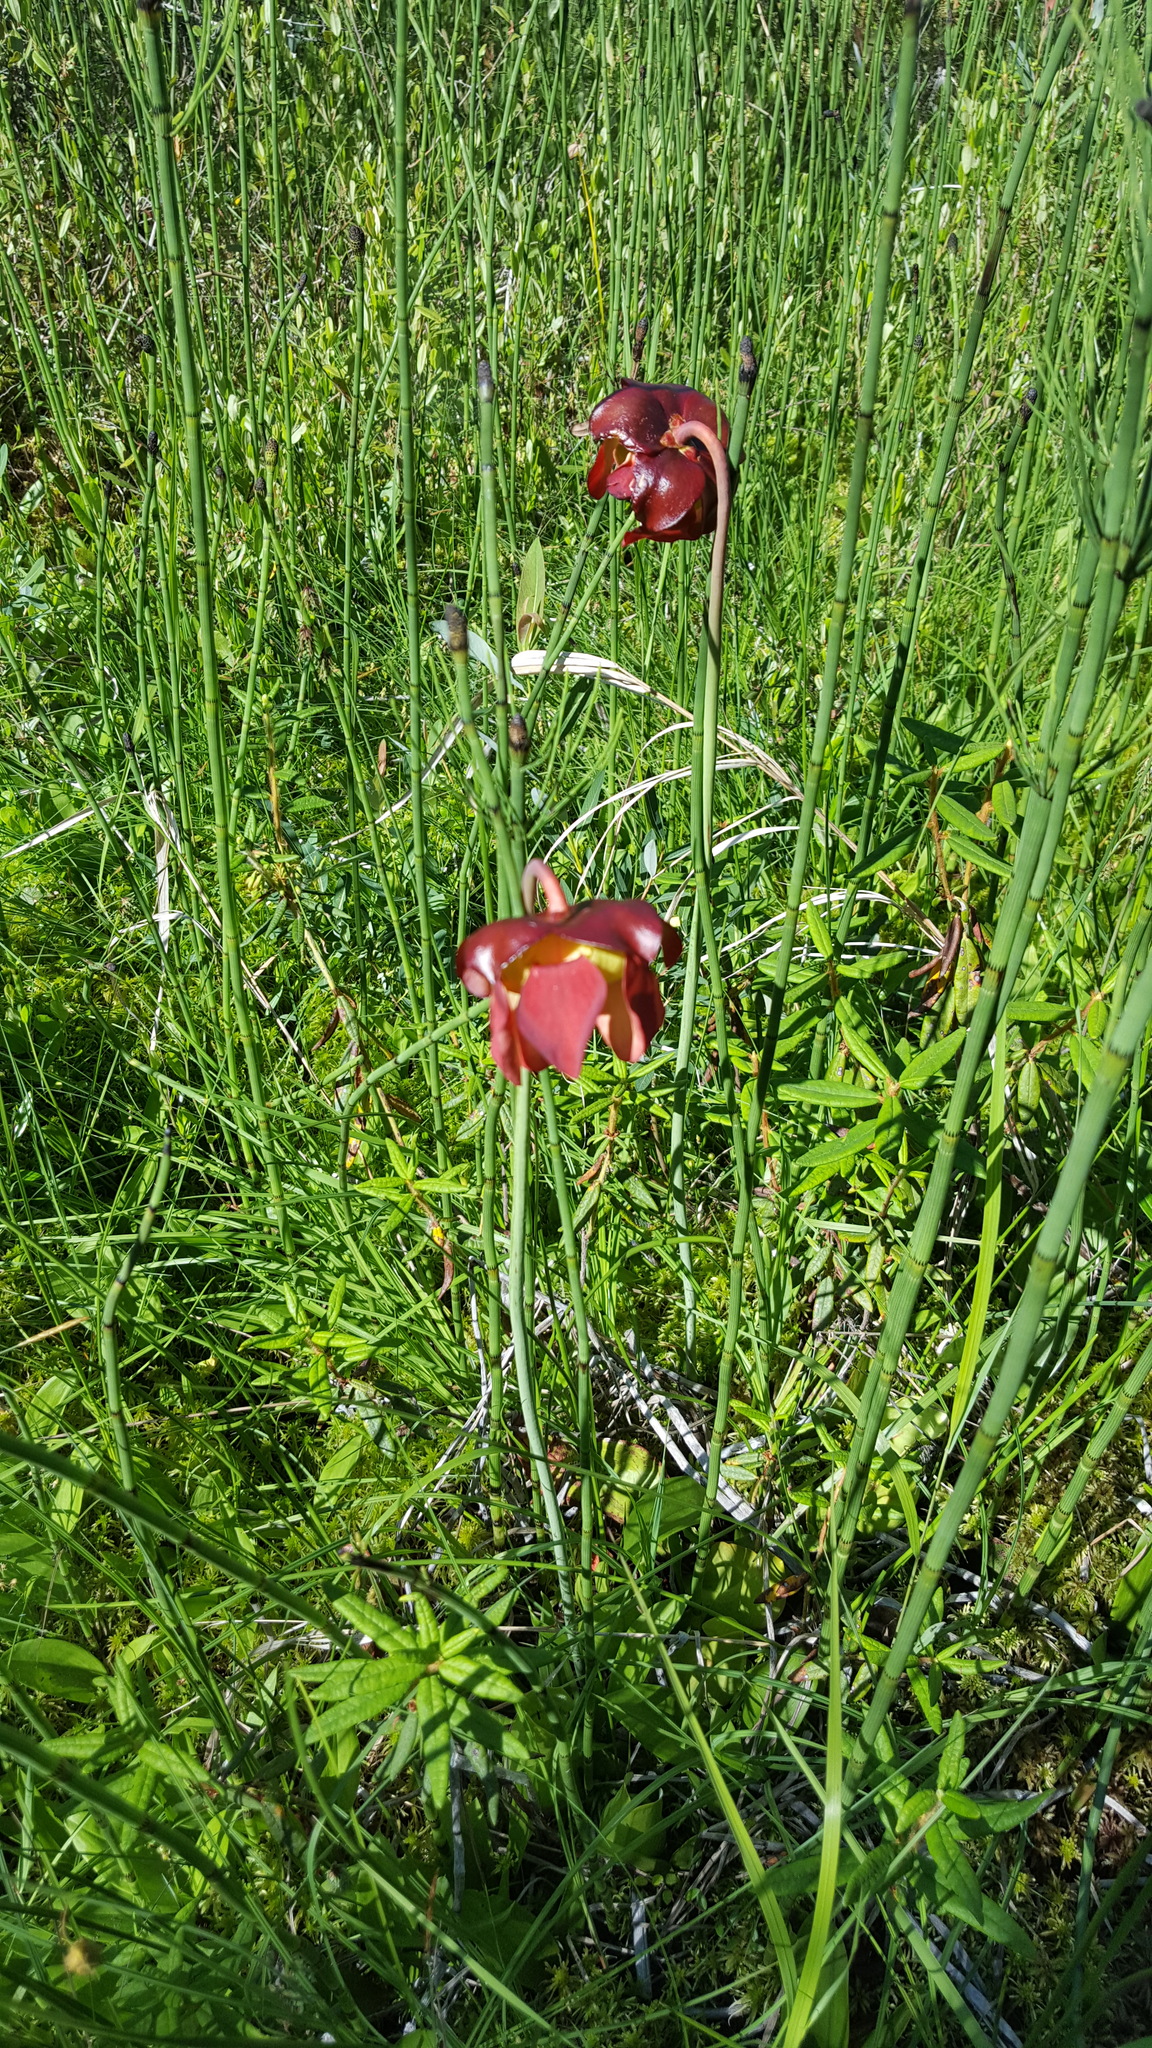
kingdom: Plantae
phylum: Tracheophyta
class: Magnoliopsida
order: Ericales
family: Sarraceniaceae
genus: Sarracenia
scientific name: Sarracenia purpurea
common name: Pitcherplant
